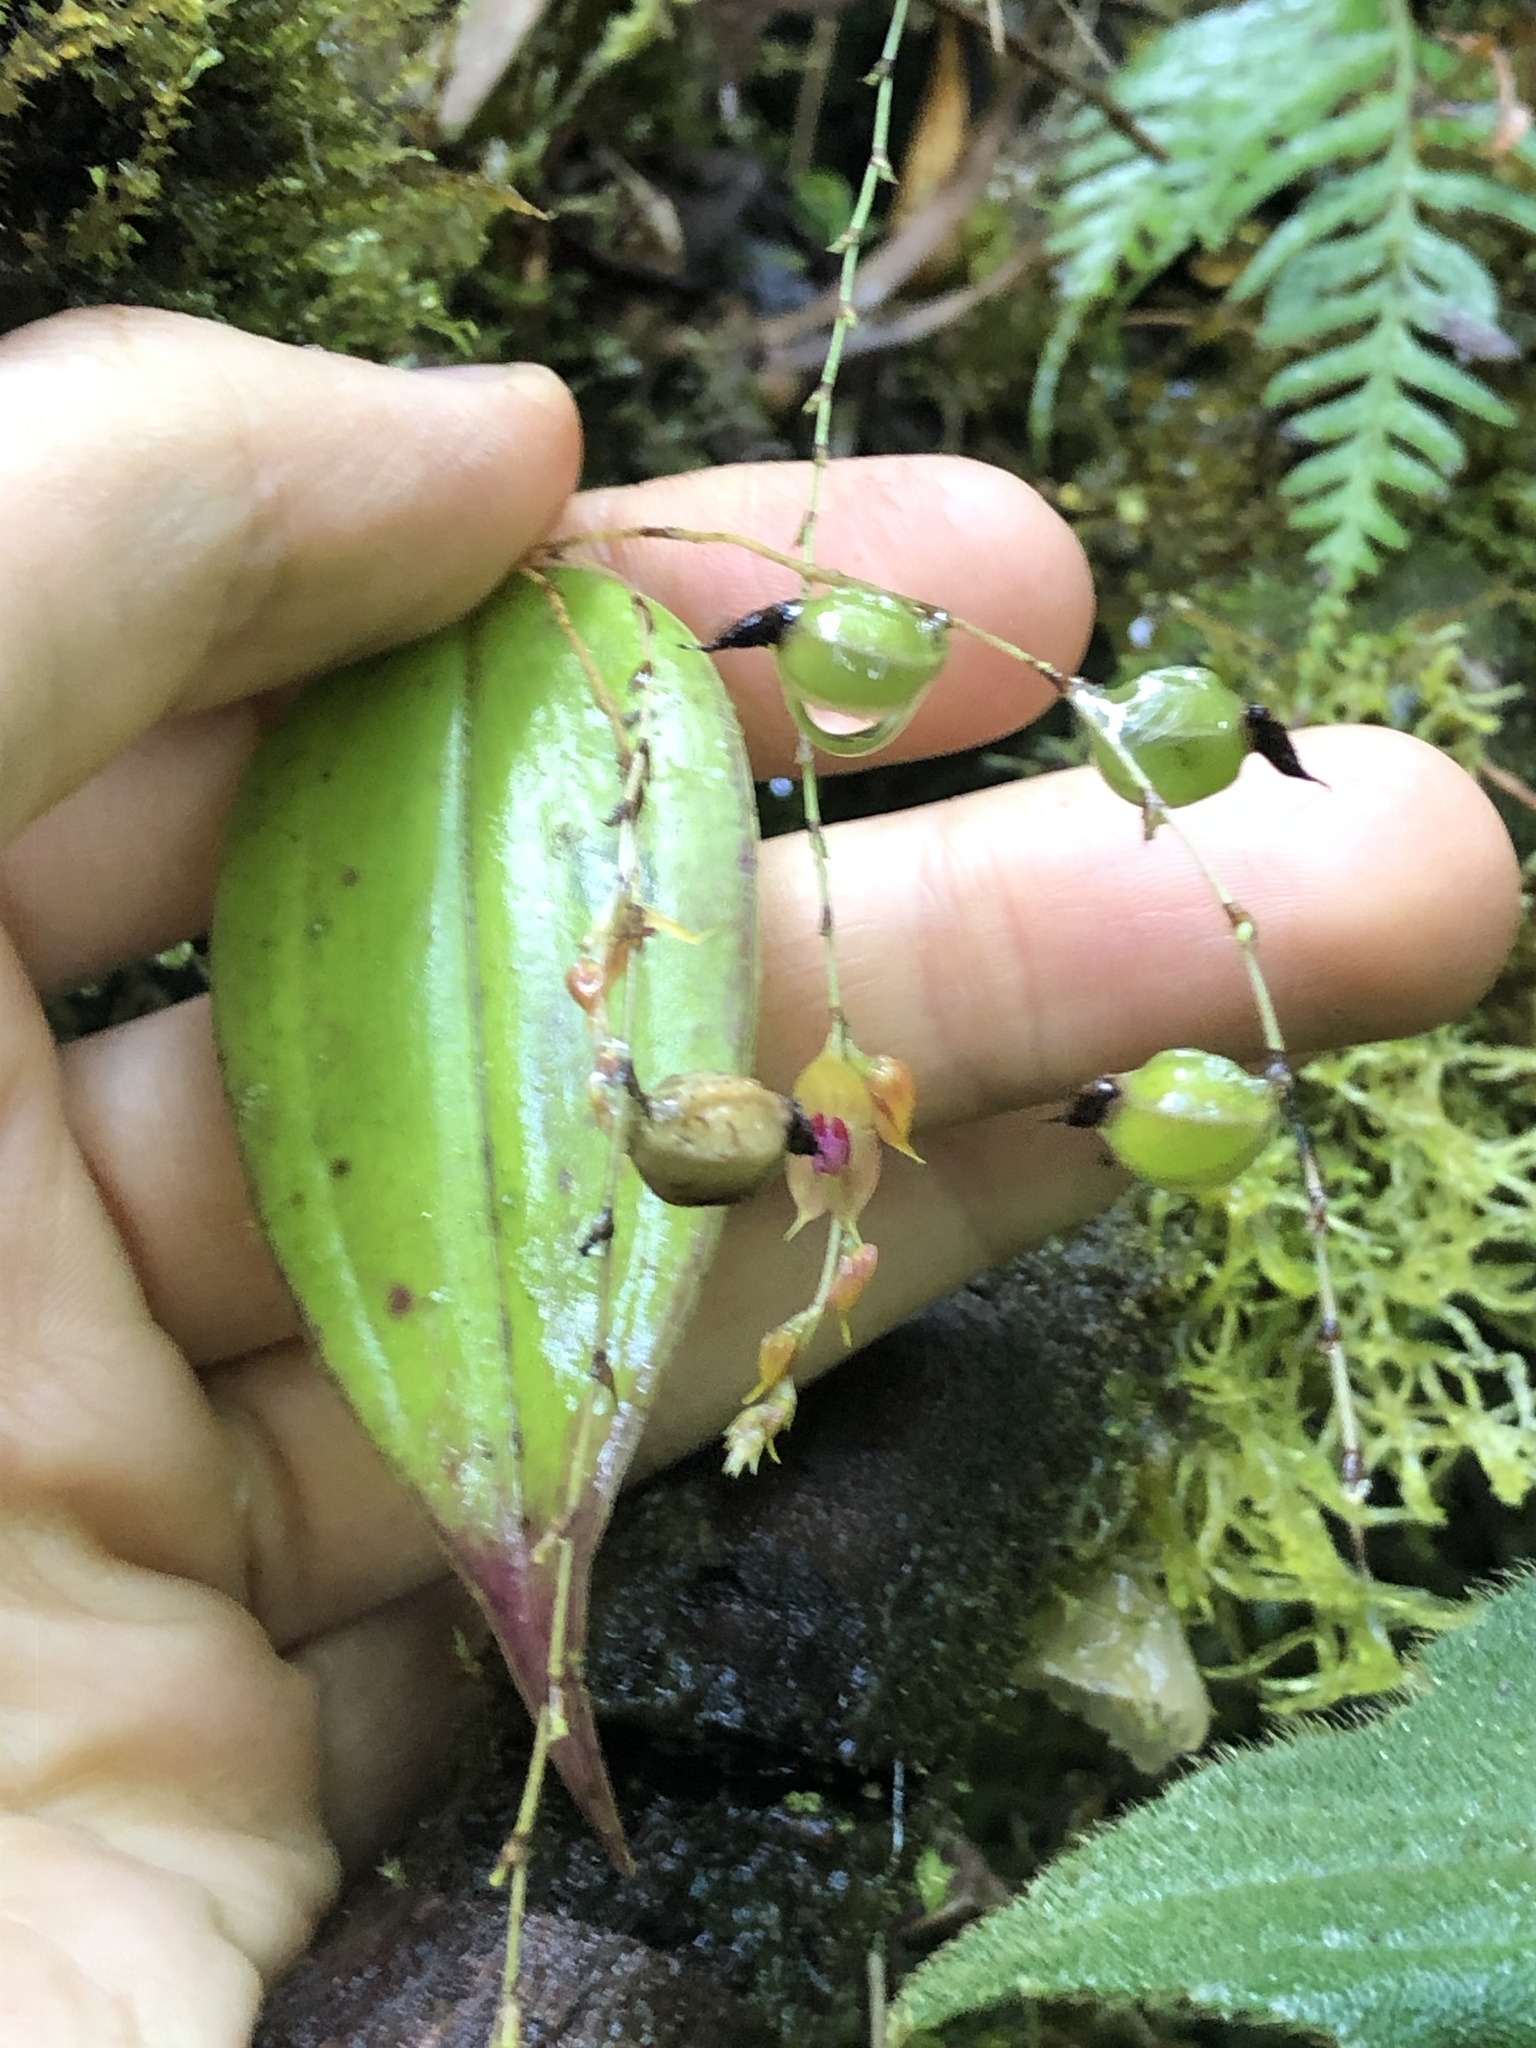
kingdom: Plantae
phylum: Tracheophyta
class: Liliopsida
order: Asparagales
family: Orchidaceae
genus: Lepanthes
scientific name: Lepanthes jardinensis
